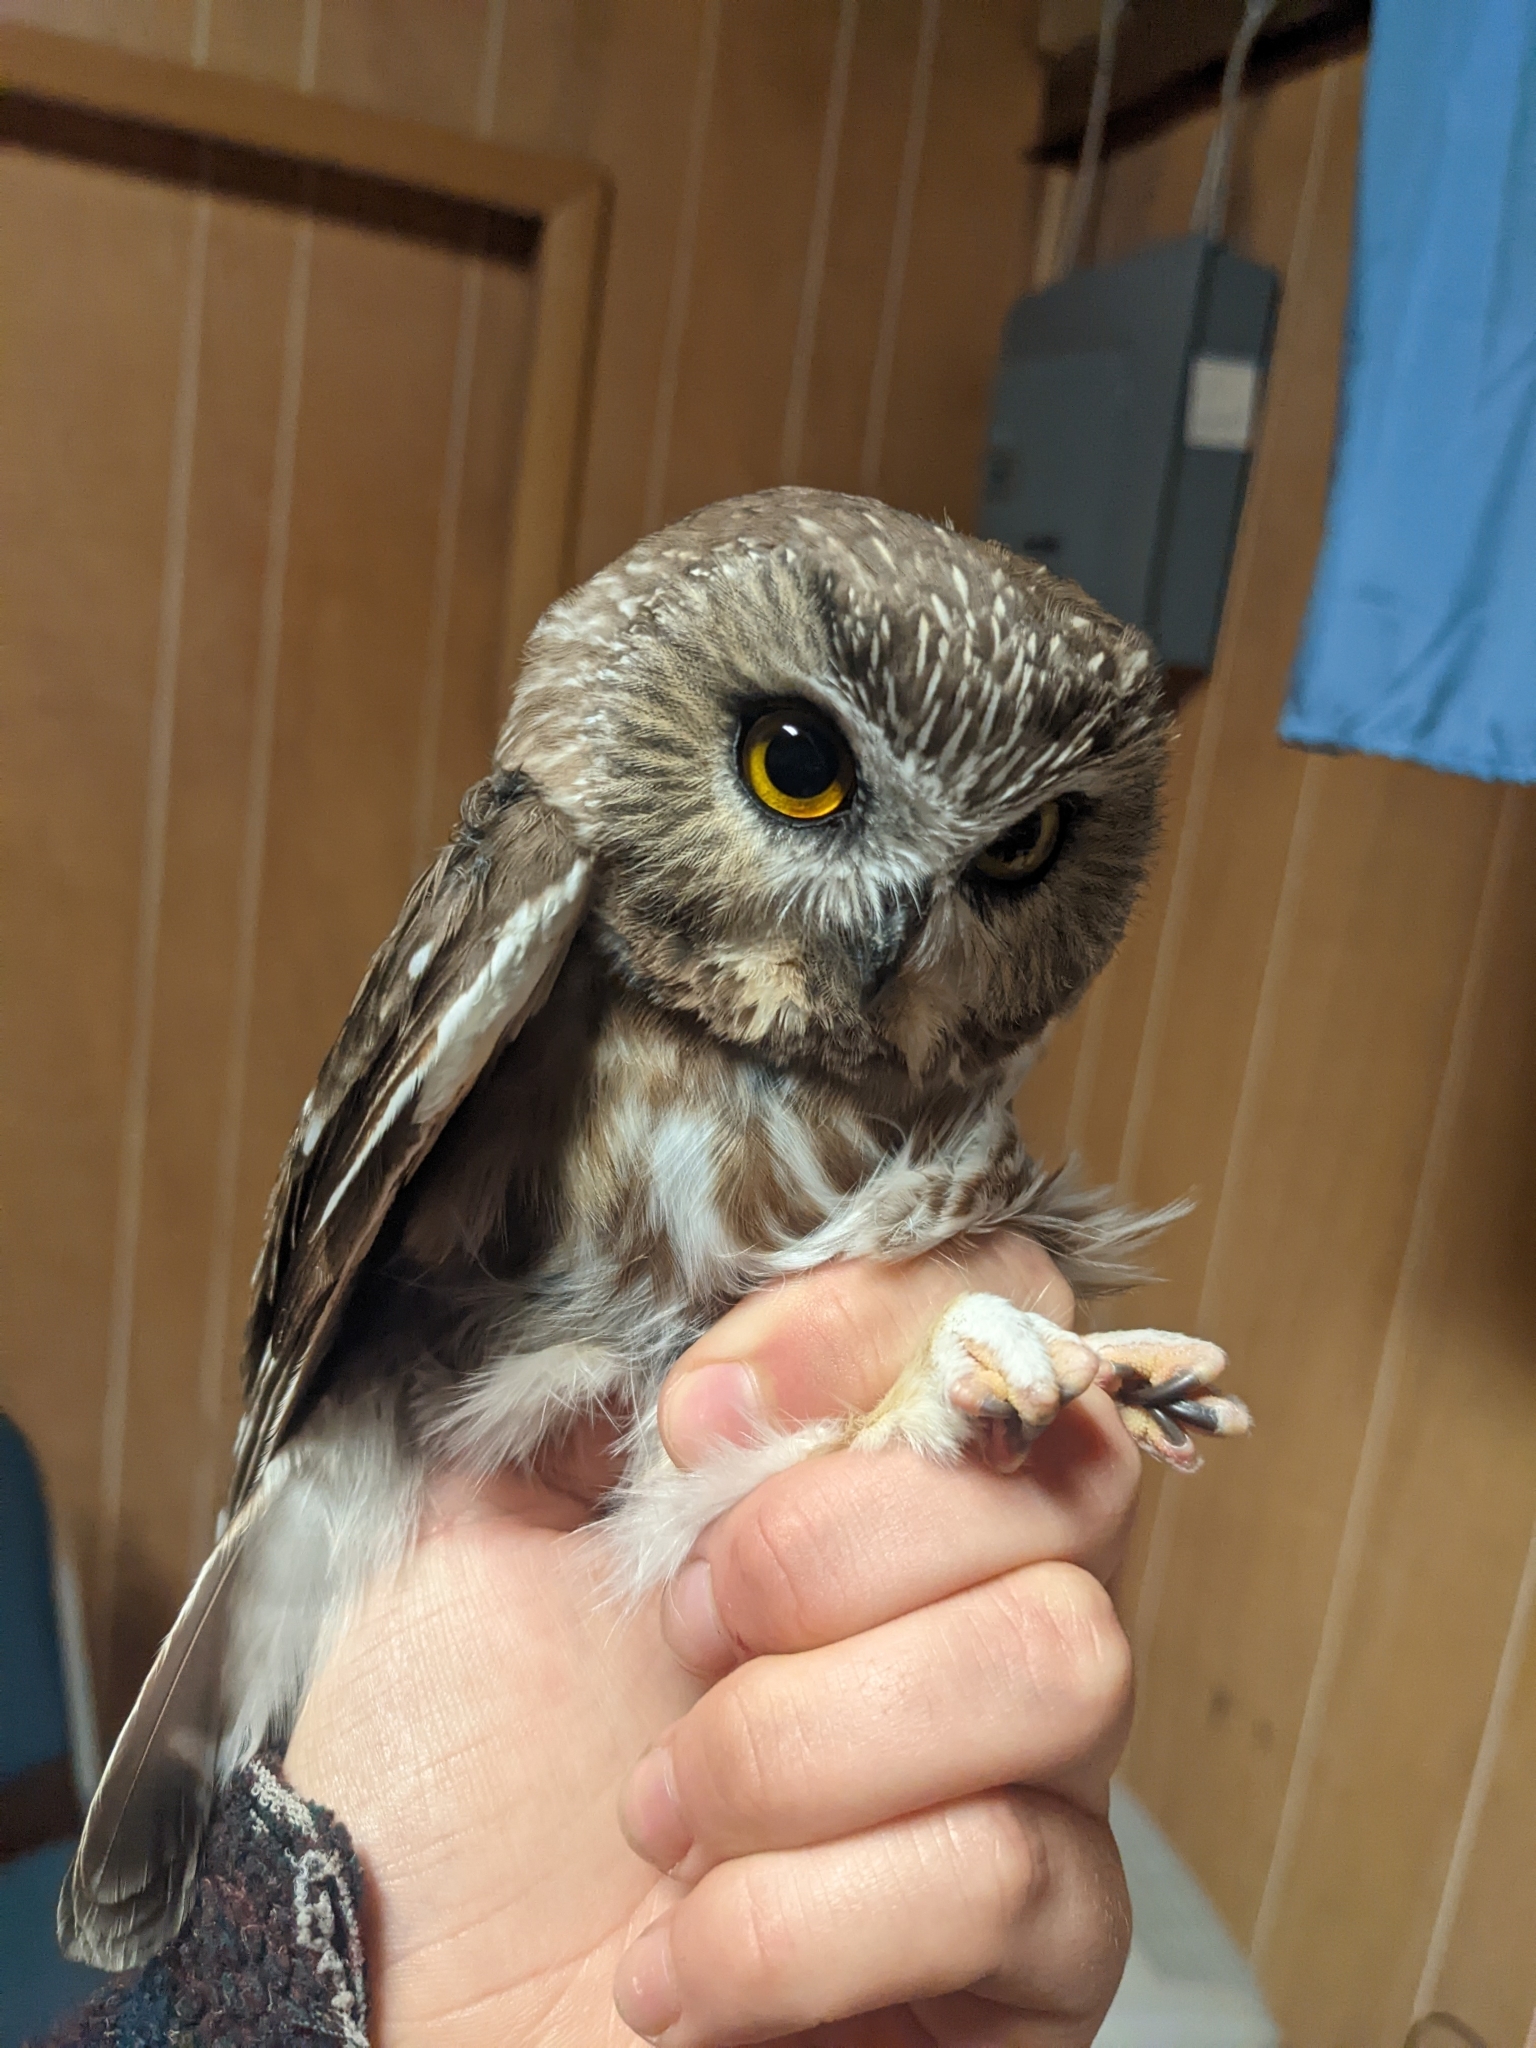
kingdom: Animalia
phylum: Chordata
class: Aves
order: Strigiformes
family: Strigidae
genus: Aegolius
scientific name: Aegolius acadicus
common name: Northern saw-whet owl
